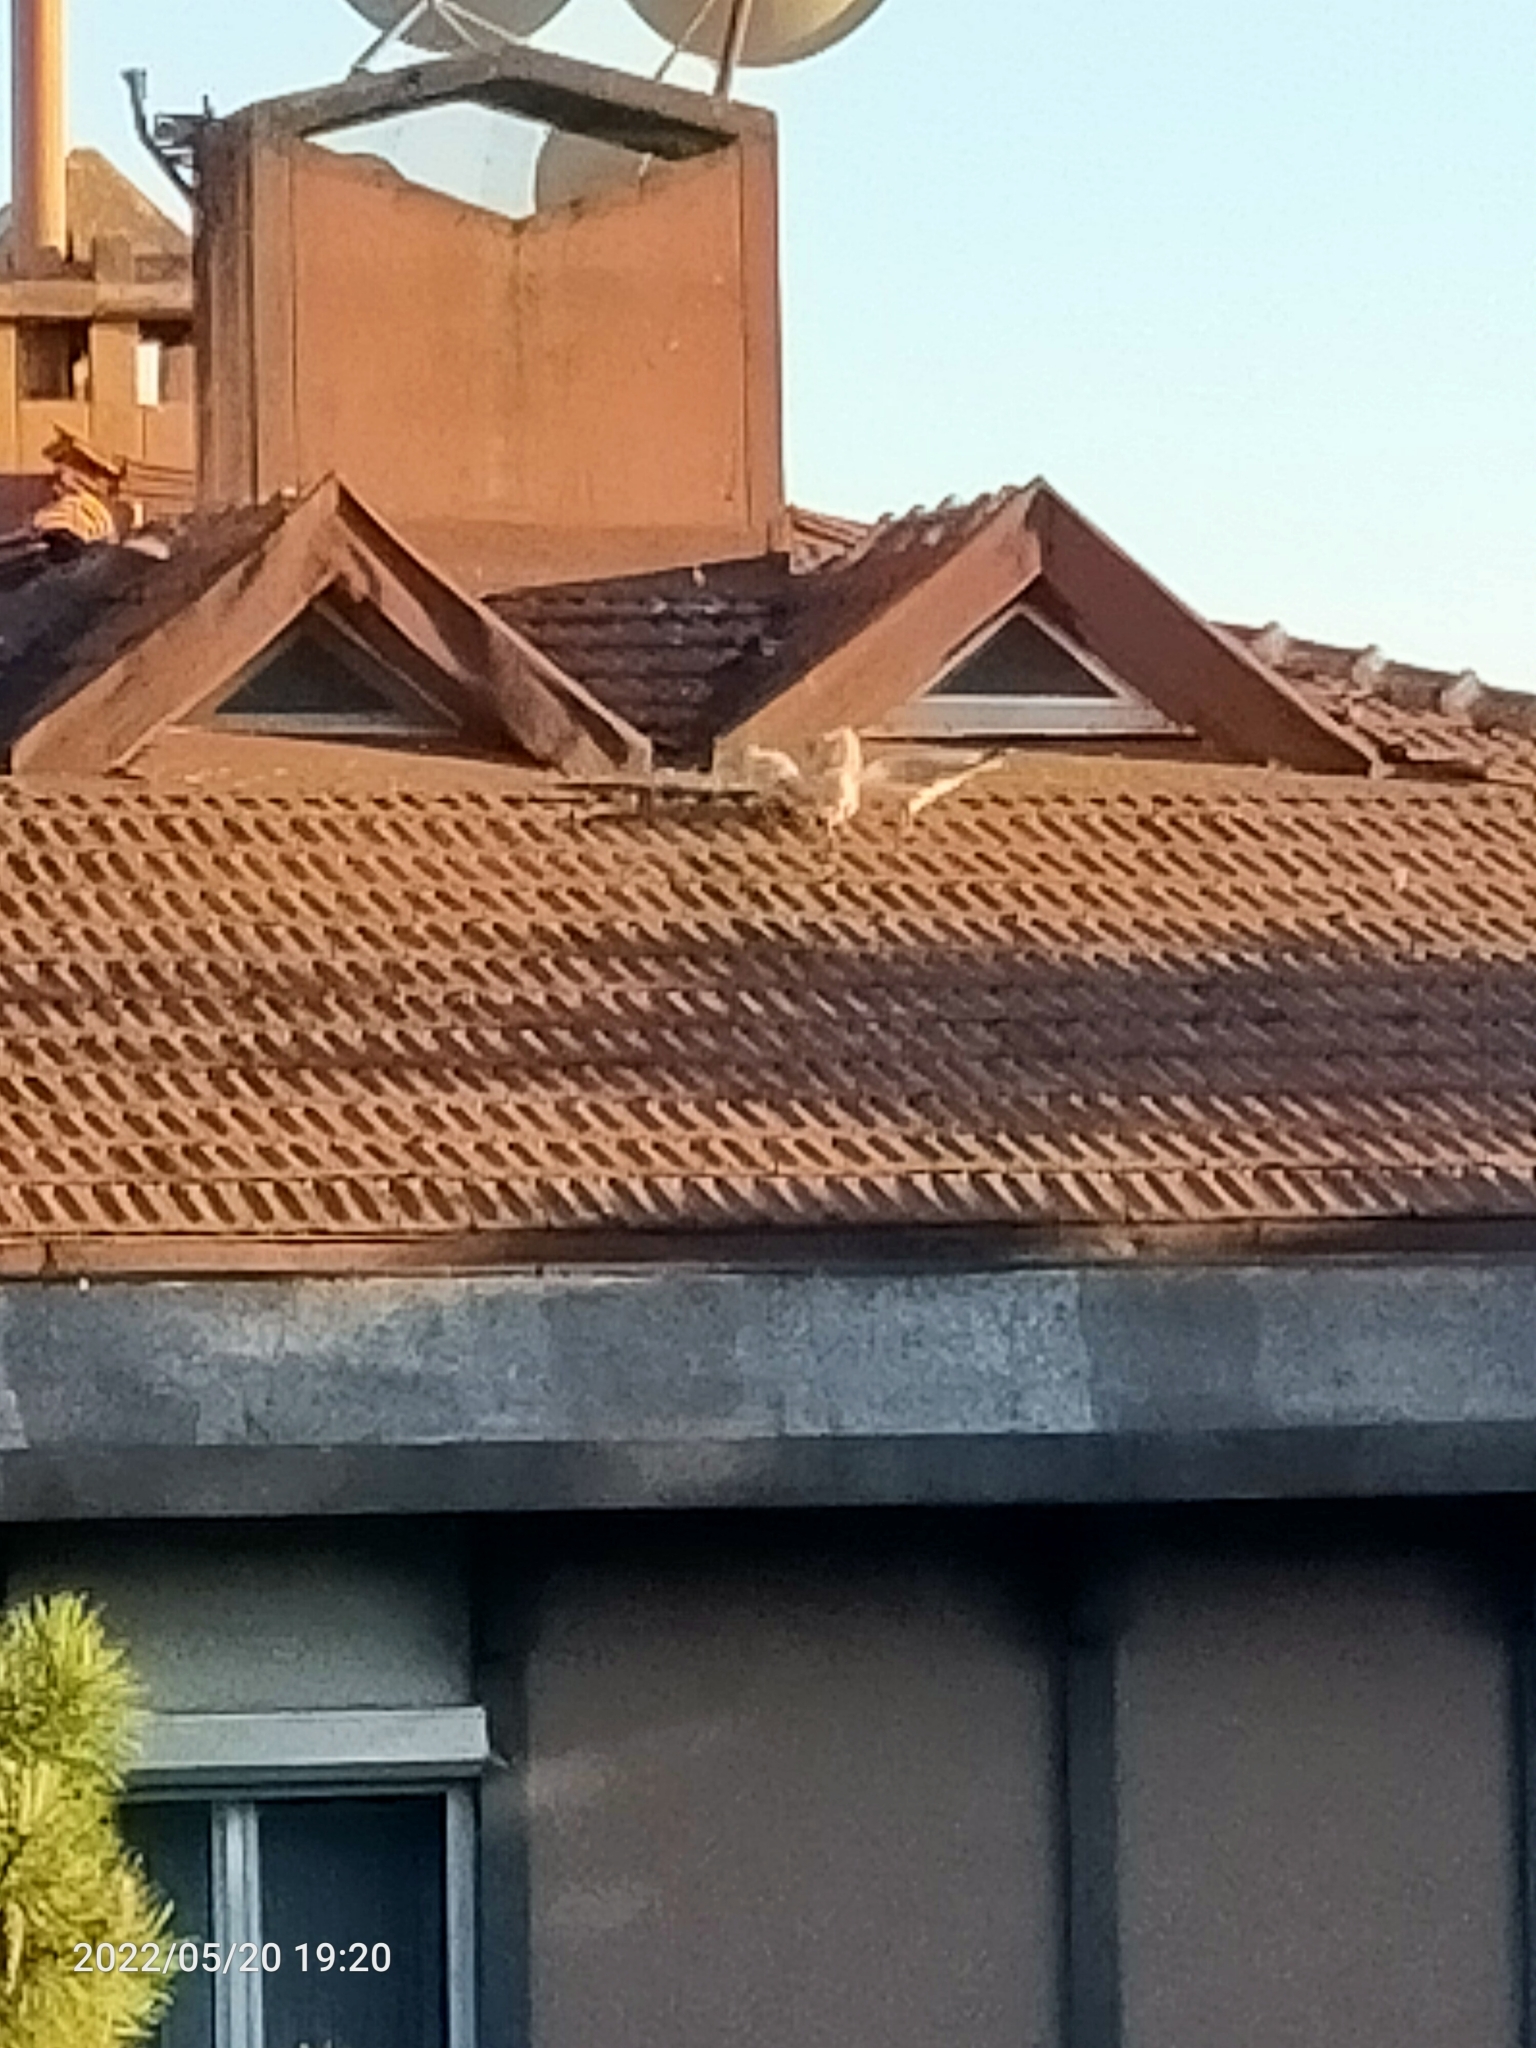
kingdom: Animalia
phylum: Chordata
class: Aves
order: Charadriiformes
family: Laridae
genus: Larus
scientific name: Larus michahellis
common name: Yellow-legged gull
